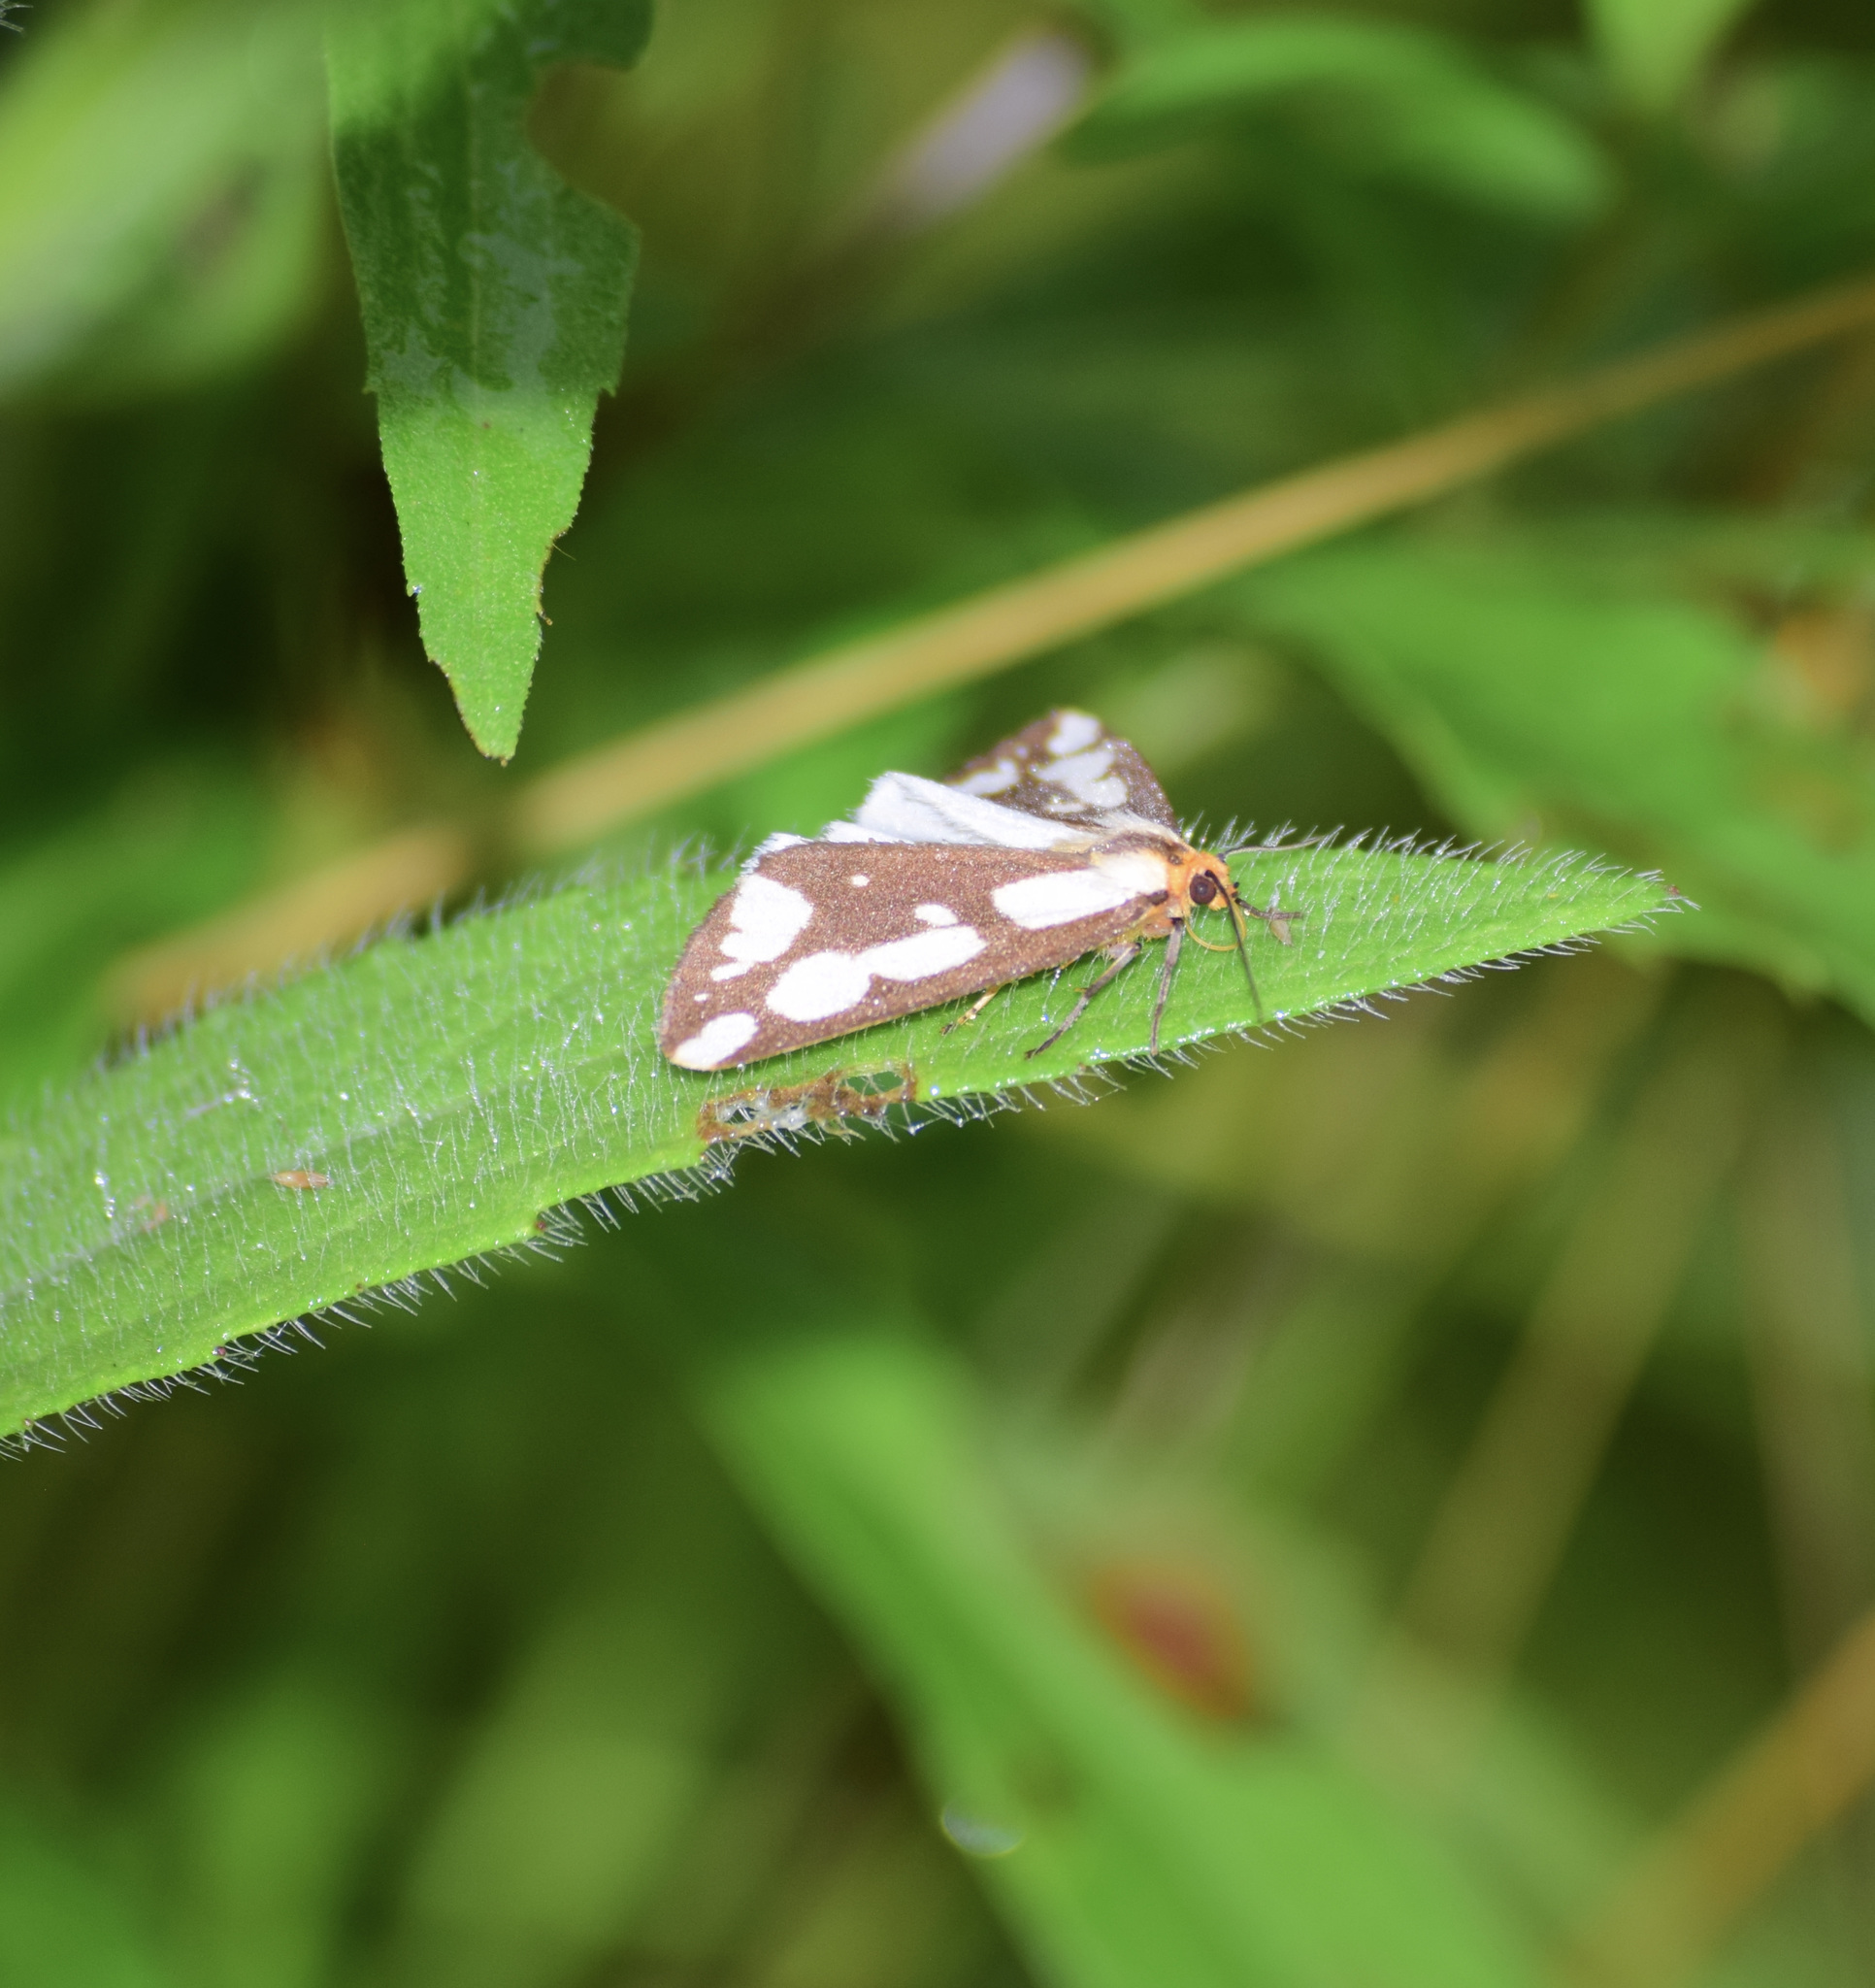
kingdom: Animalia
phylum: Arthropoda
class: Insecta
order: Lepidoptera
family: Erebidae
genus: Haploa
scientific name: Haploa confusa
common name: Confused haploa moth
